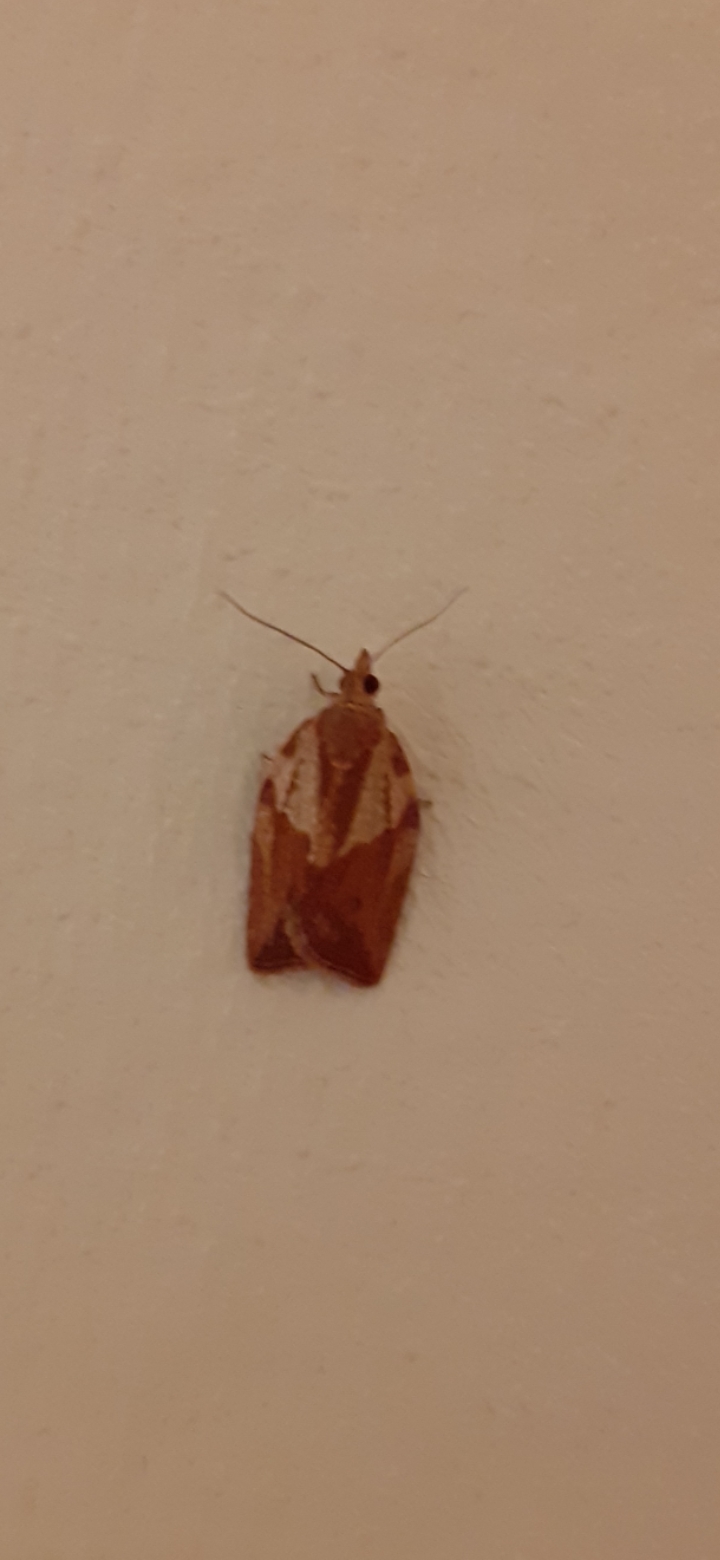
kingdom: Animalia
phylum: Arthropoda
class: Insecta
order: Lepidoptera
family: Tortricidae
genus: Epiphyas
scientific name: Epiphyas postvittana
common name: Light brown apple moth
